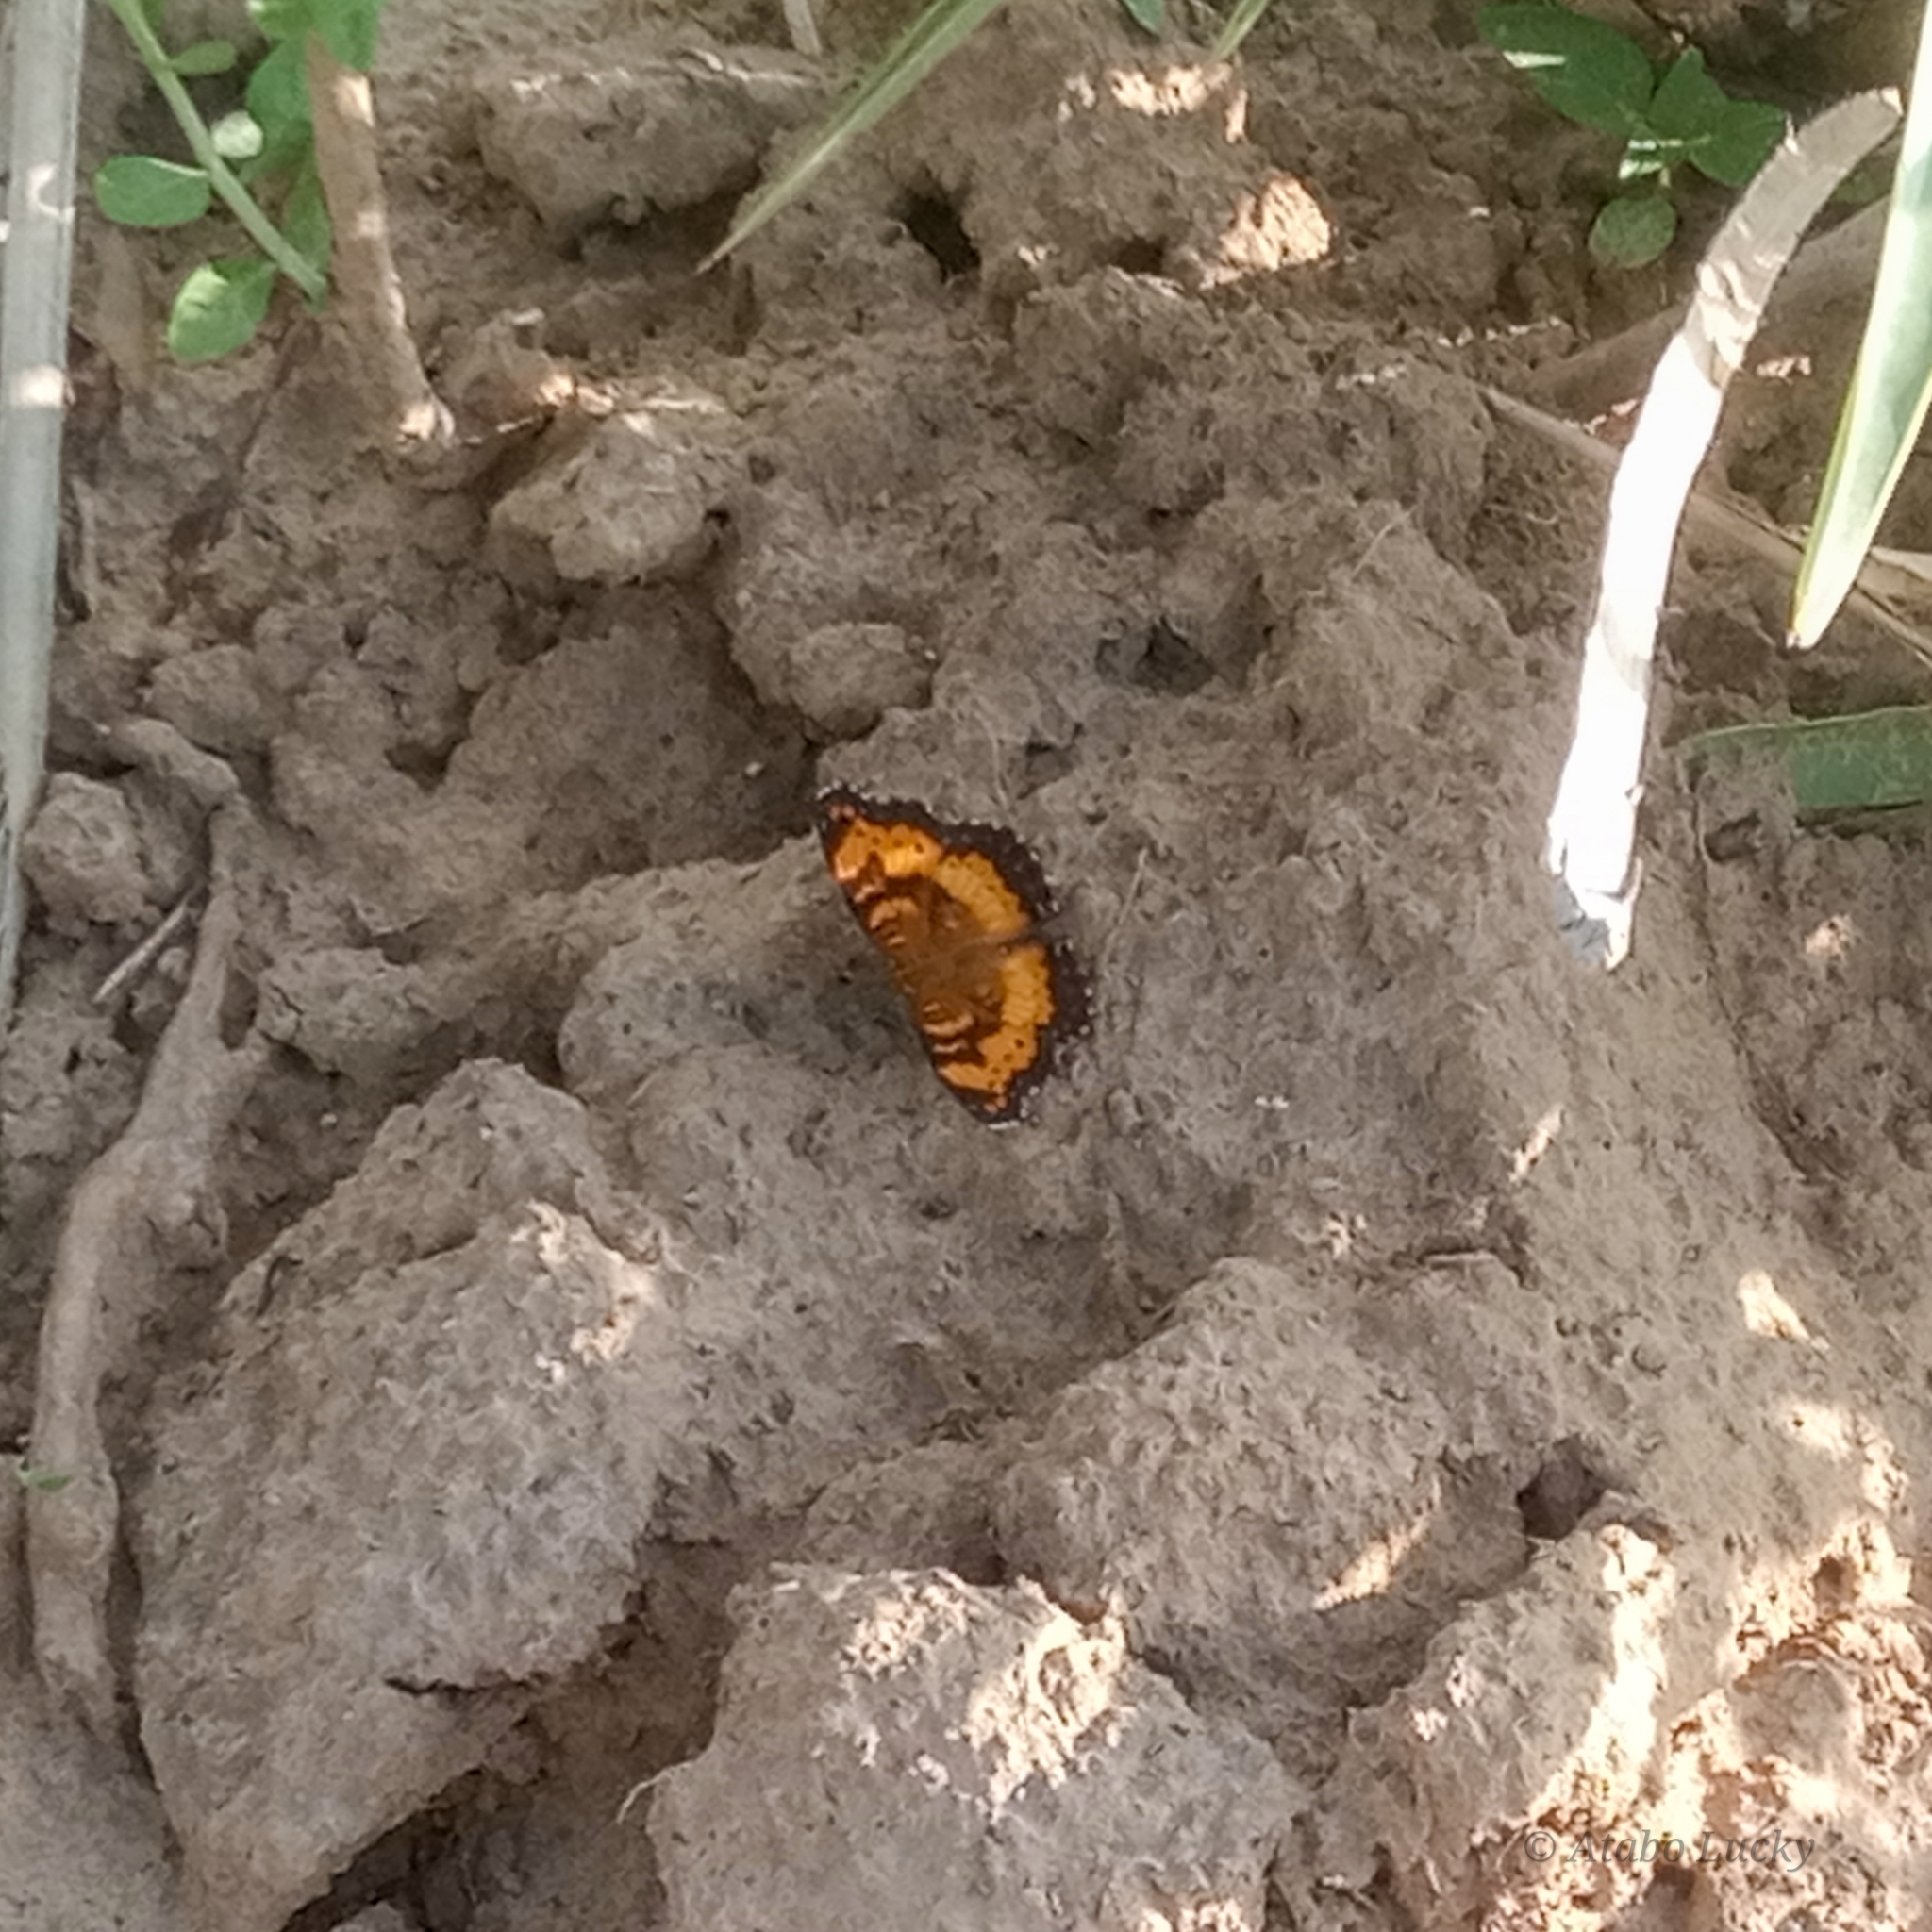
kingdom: Animalia
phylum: Arthropoda
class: Insecta
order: Lepidoptera
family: Nymphalidae
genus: Junonia
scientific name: Junonia antilope
